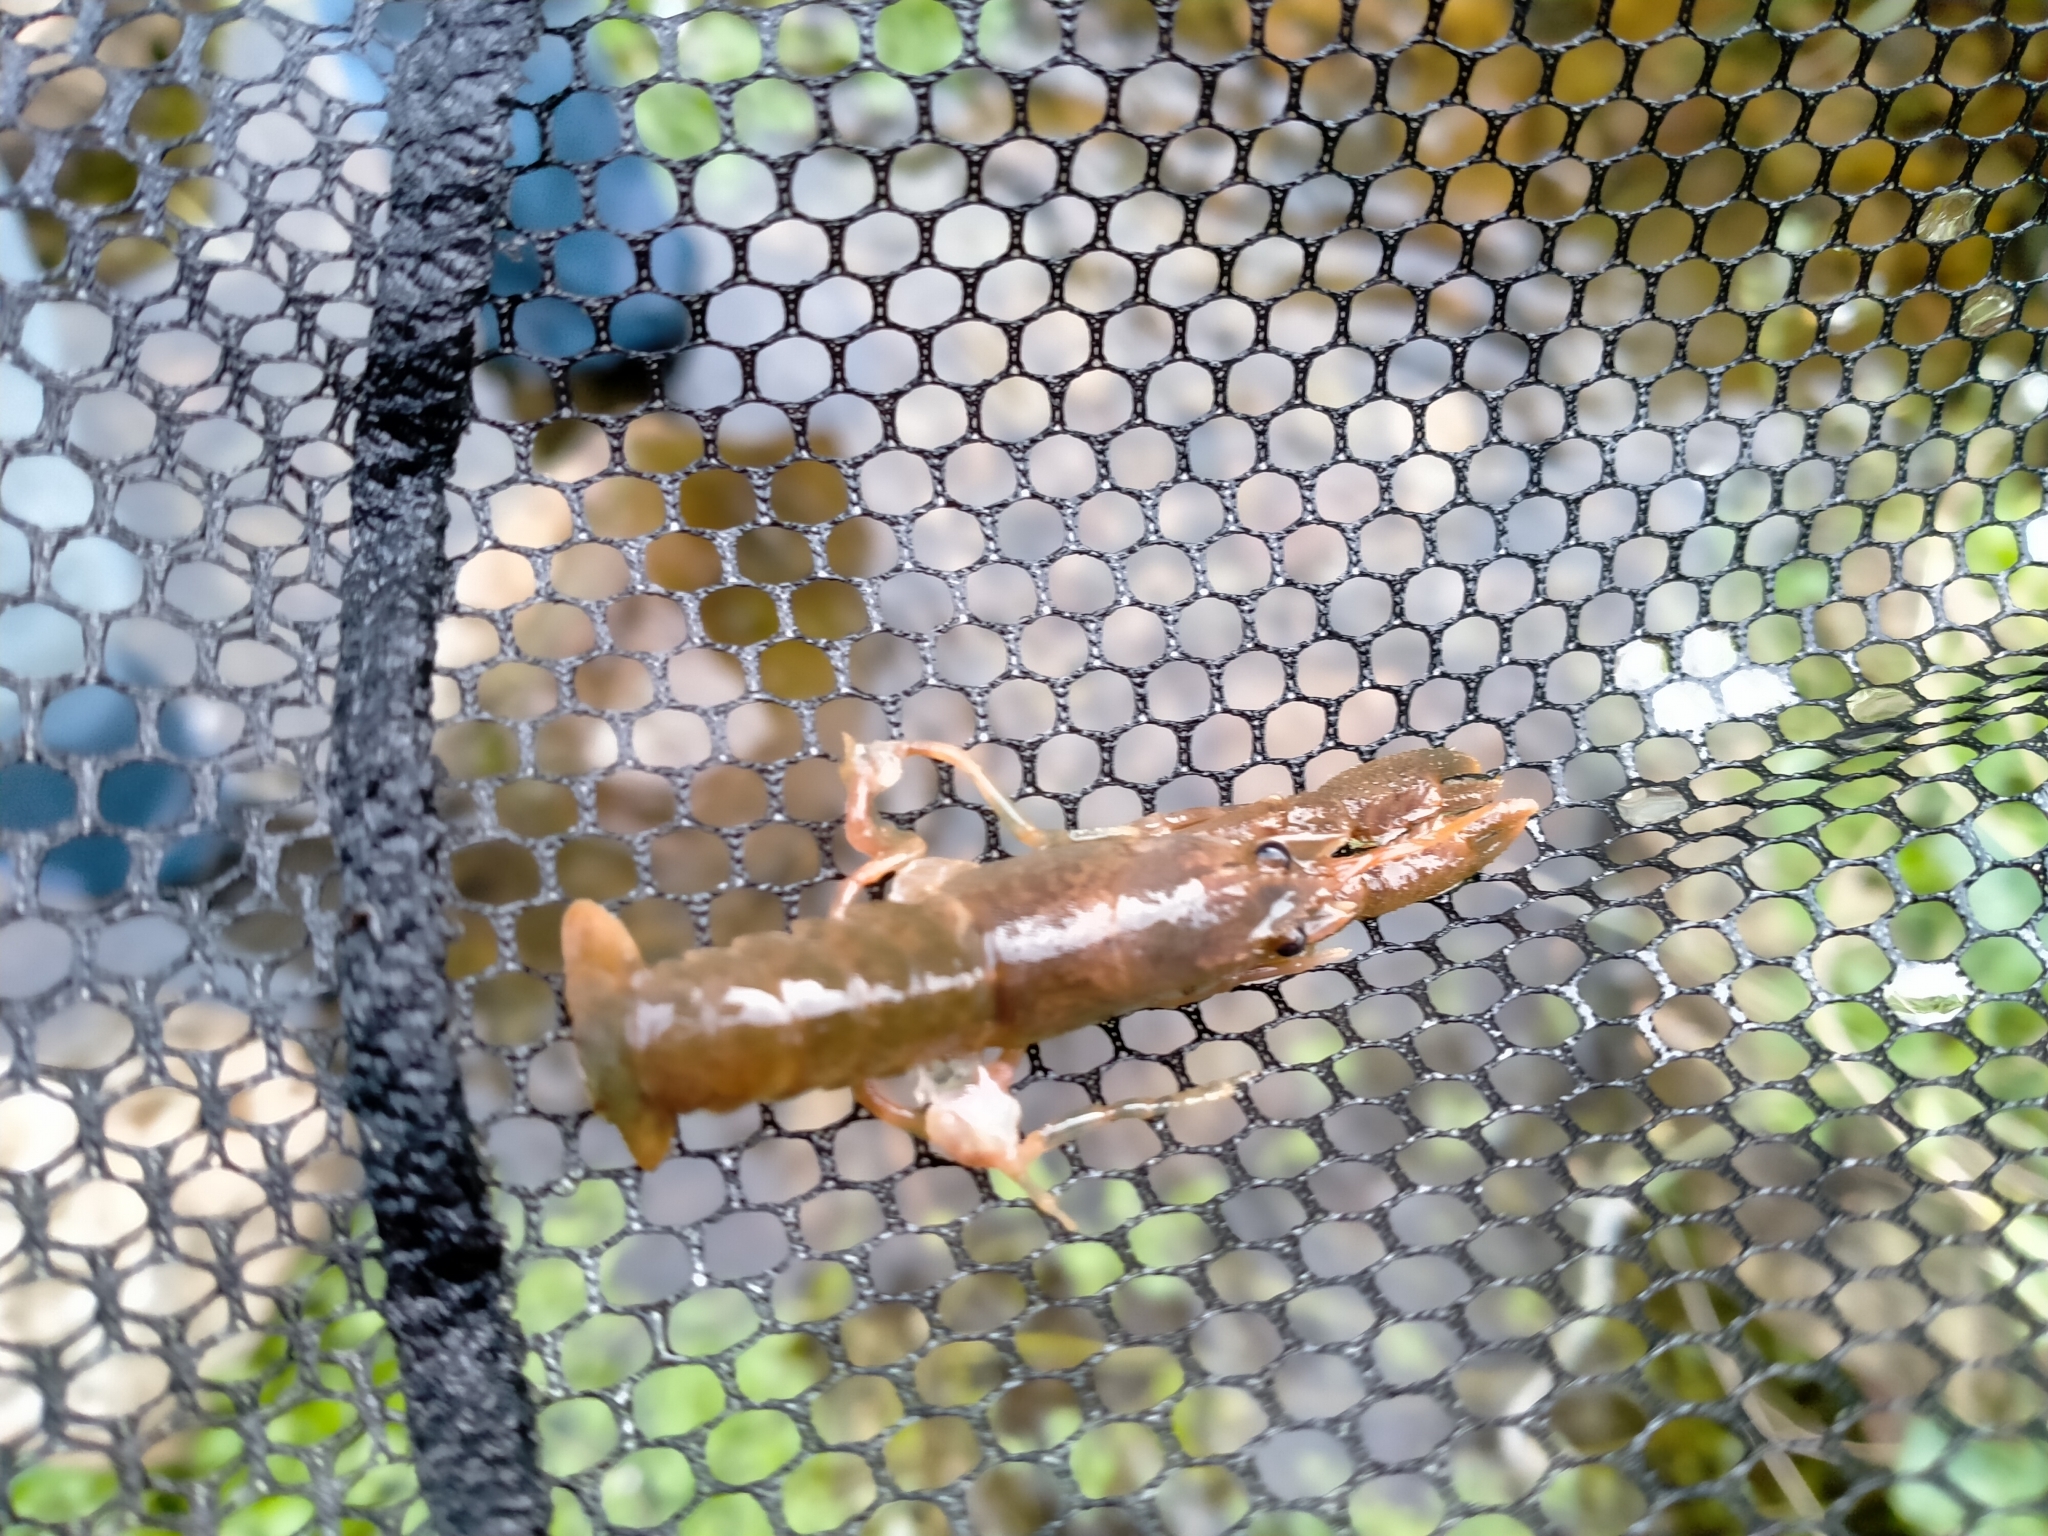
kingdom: Animalia
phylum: Arthropoda
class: Malacostraca
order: Decapoda
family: Parastacidae
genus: Paranephrops
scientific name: Paranephrops planifrons
